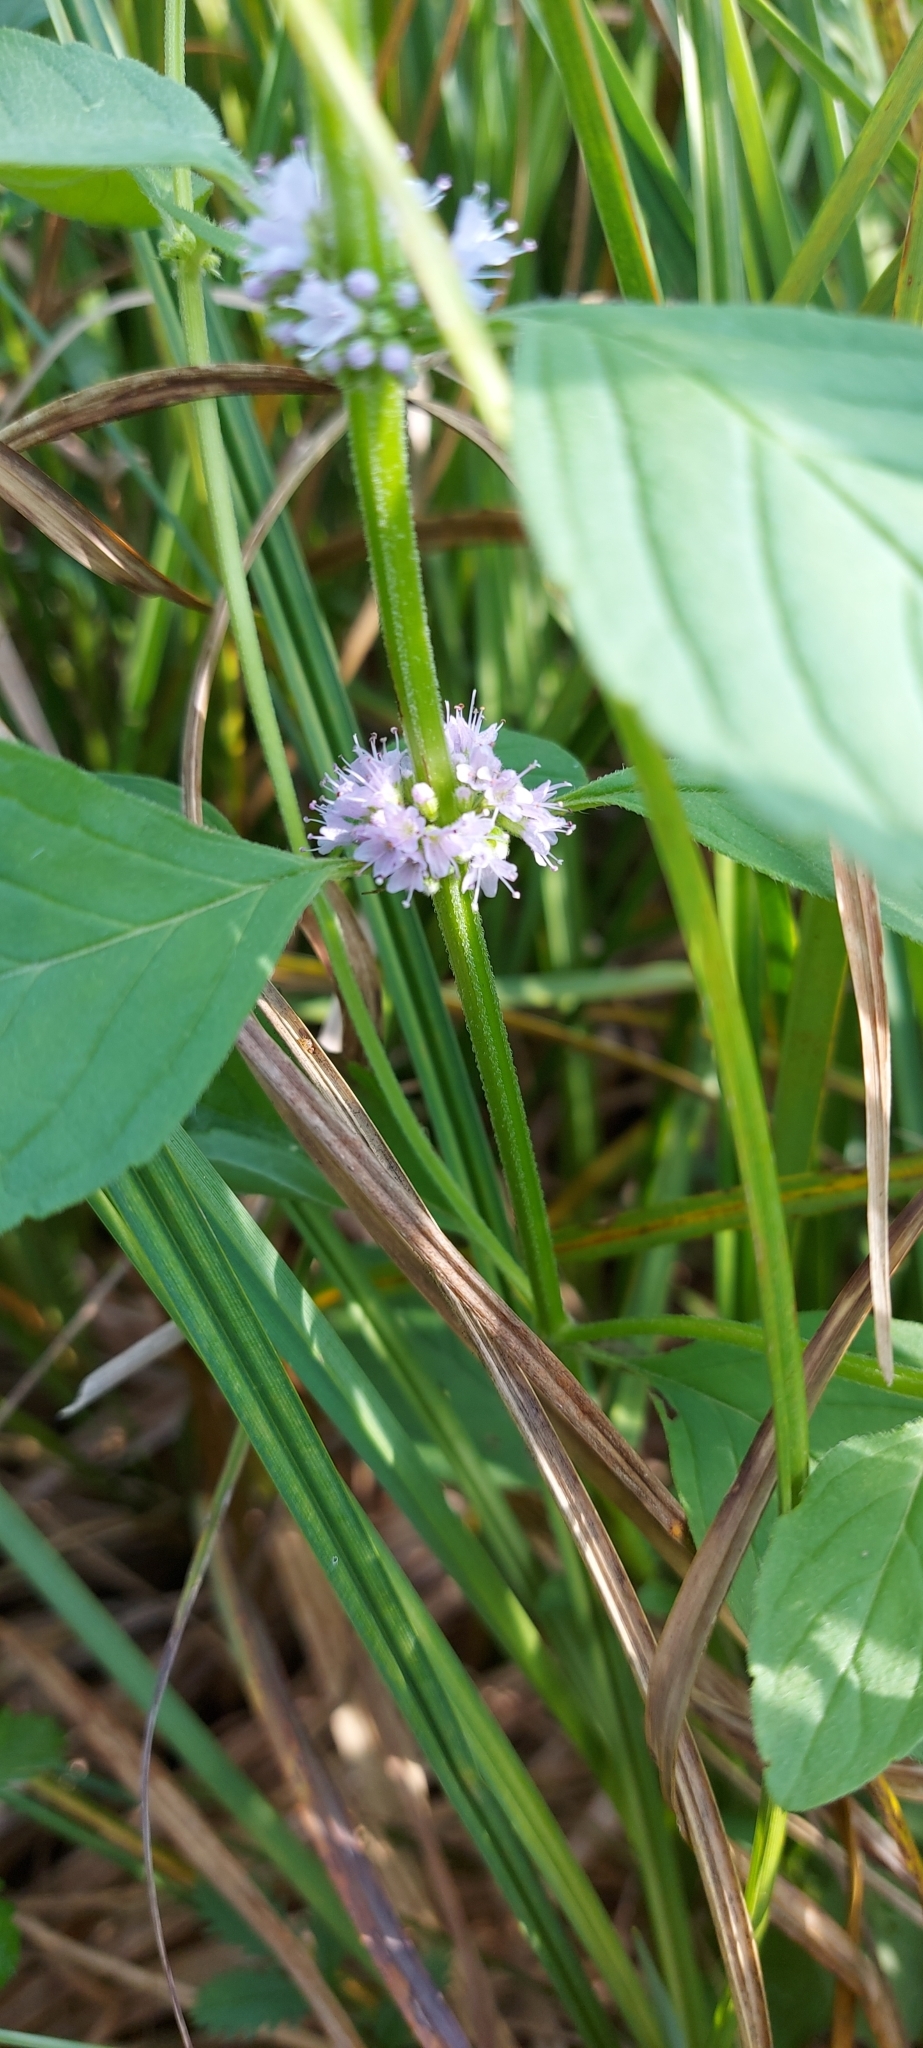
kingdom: Plantae
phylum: Tracheophyta
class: Magnoliopsida
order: Lamiales
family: Lamiaceae
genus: Mentha
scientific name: Mentha arvensis
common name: Corn mint
